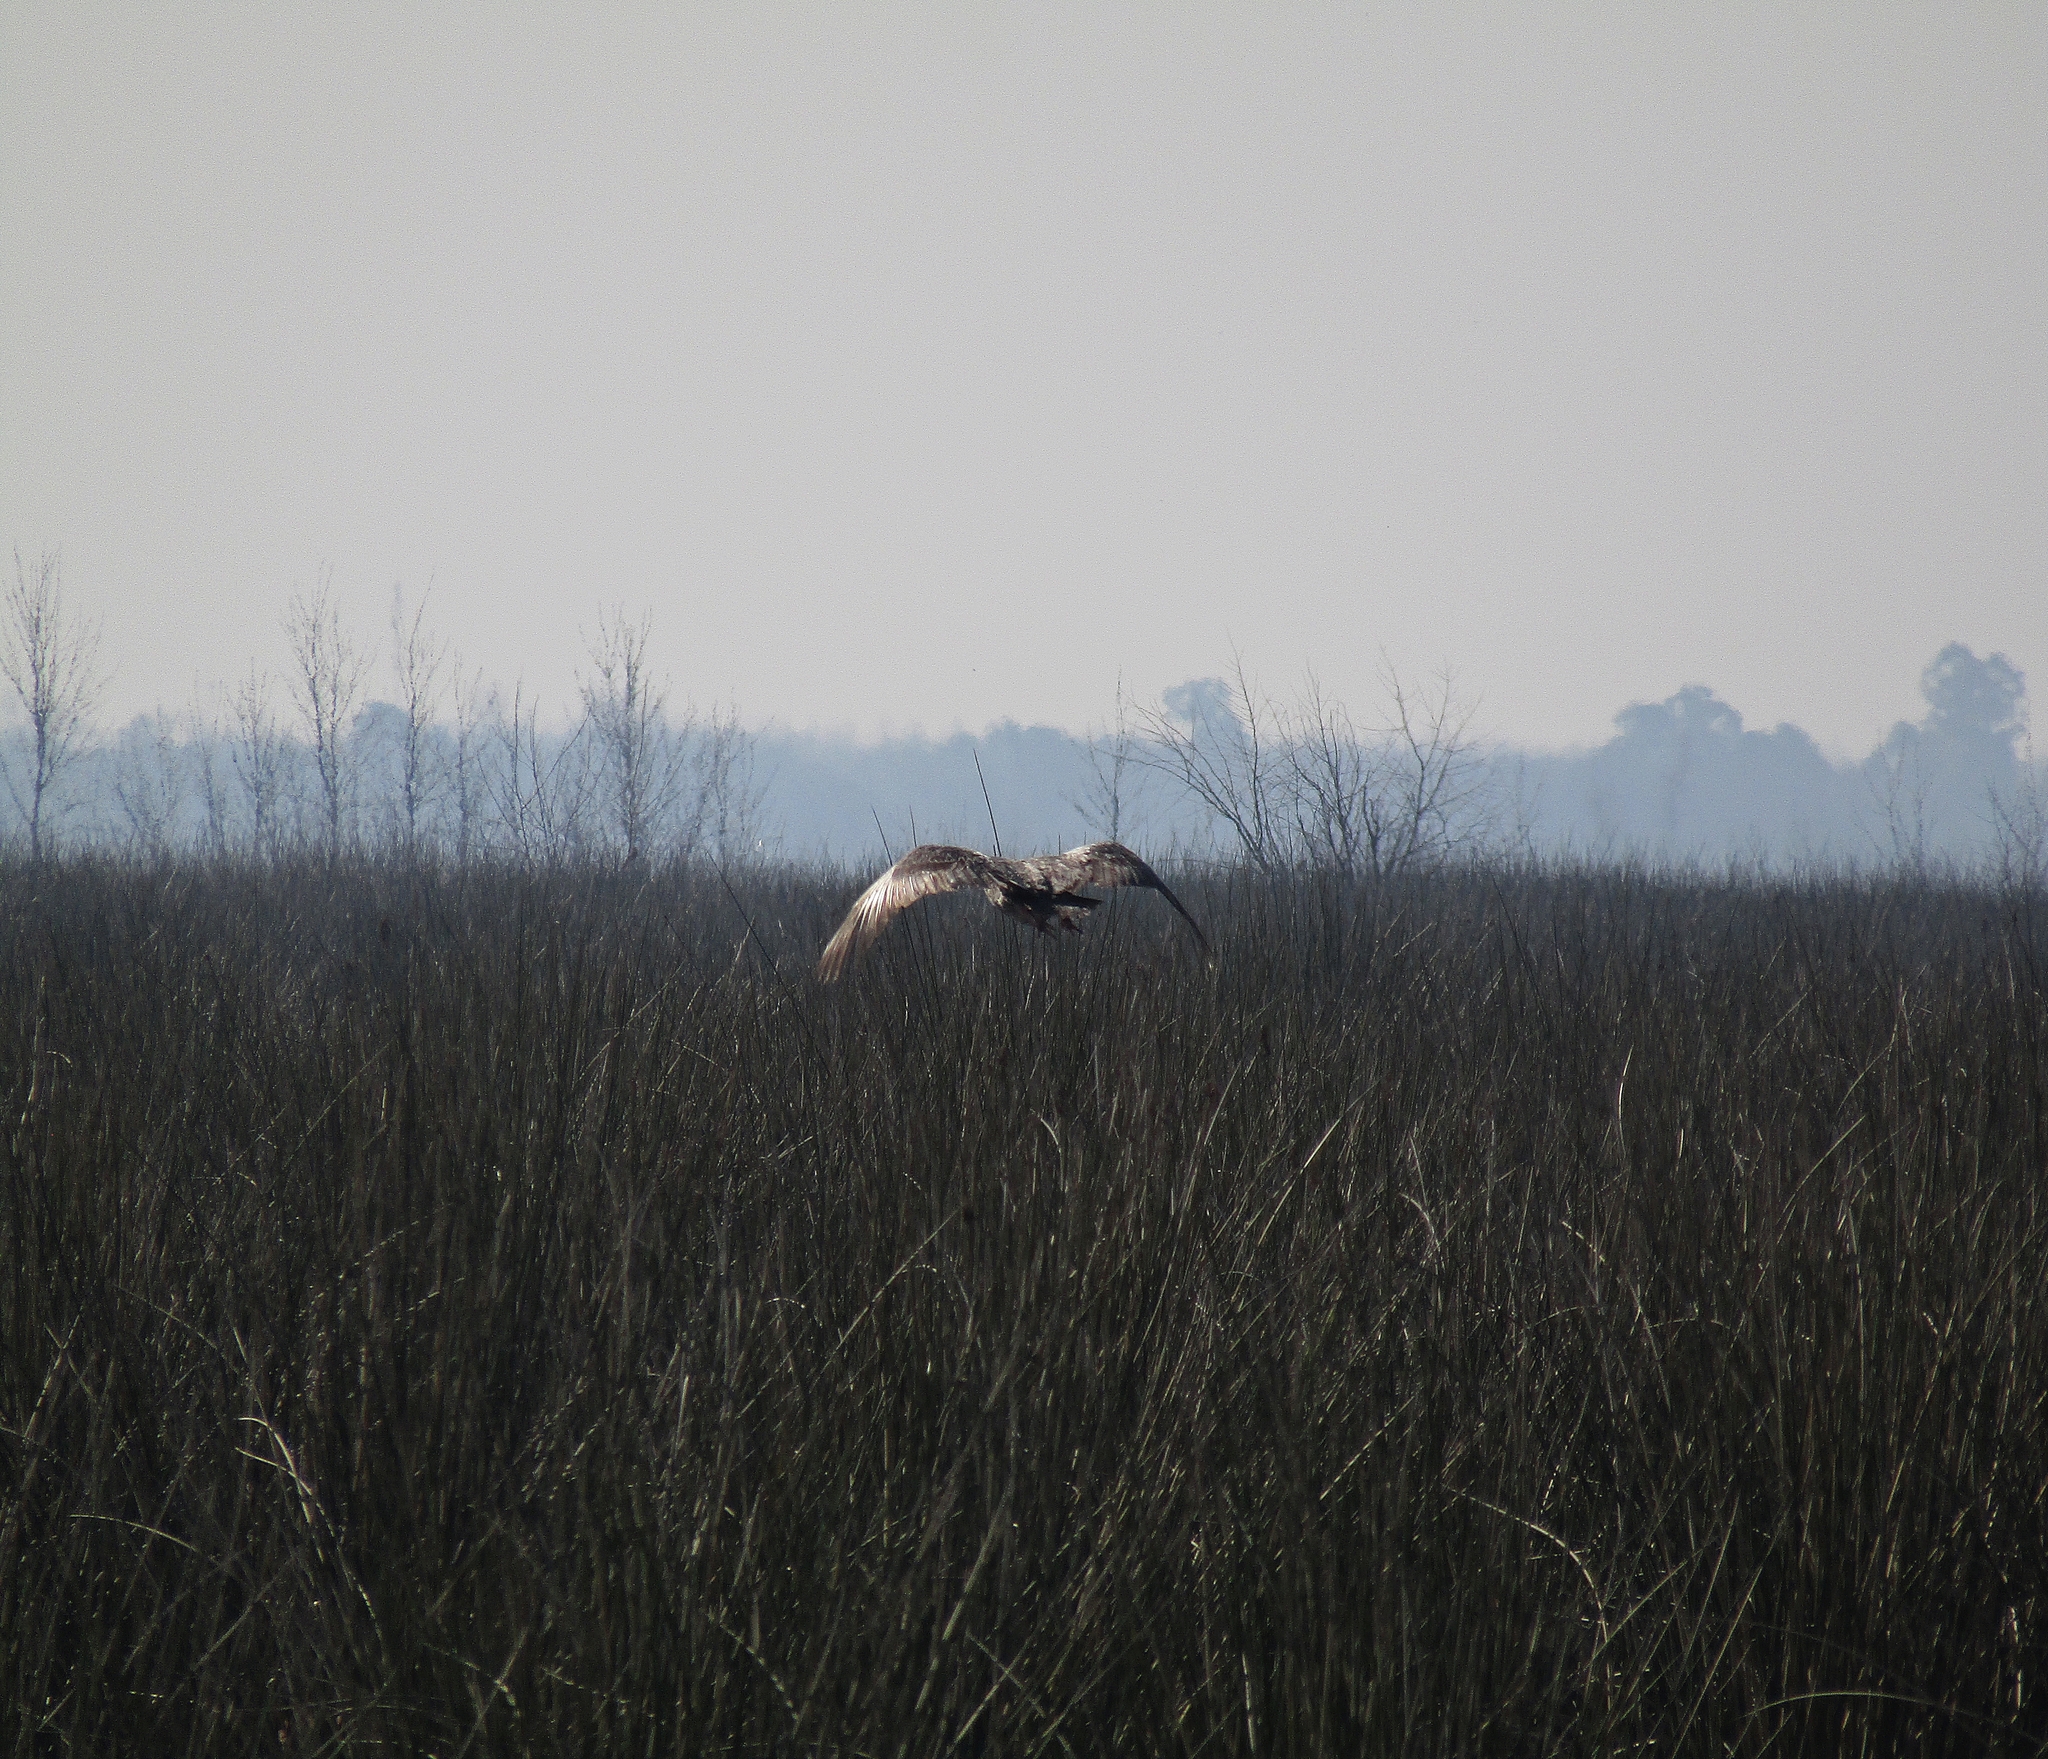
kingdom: Animalia
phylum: Chordata
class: Aves
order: Anseriformes
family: Anhimidae
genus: Chauna
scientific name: Chauna torquata
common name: Southern screamer
